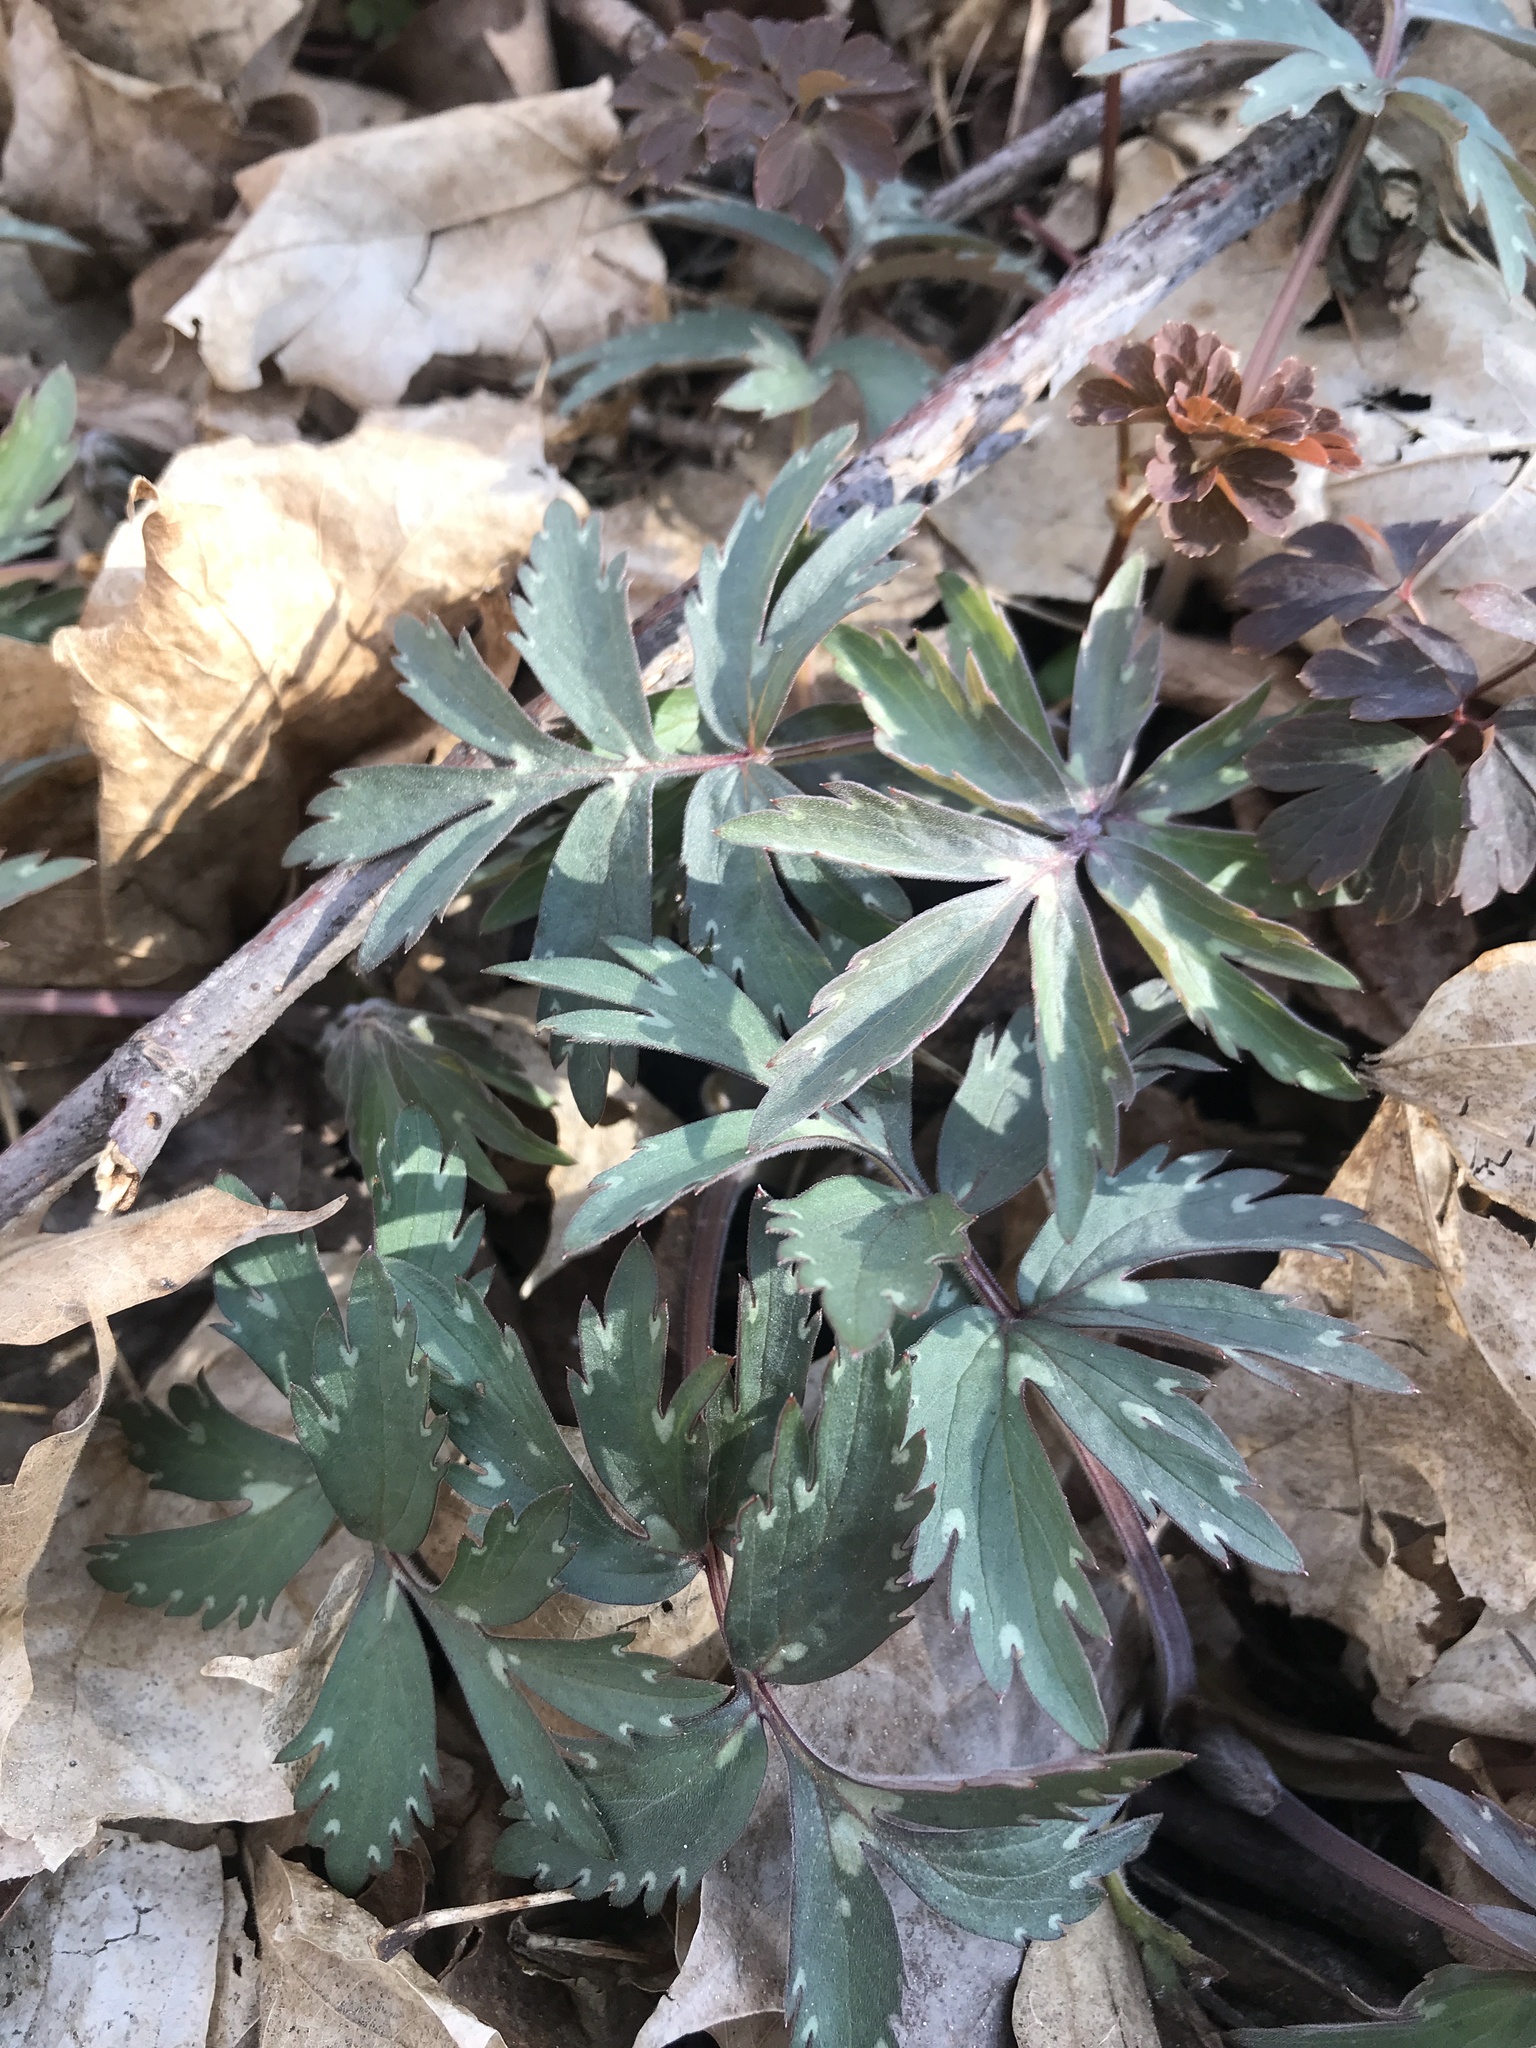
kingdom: Plantae
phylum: Tracheophyta
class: Magnoliopsida
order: Boraginales
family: Hydrophyllaceae
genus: Hydrophyllum
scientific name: Hydrophyllum virginianum
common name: Virginia waterleaf
